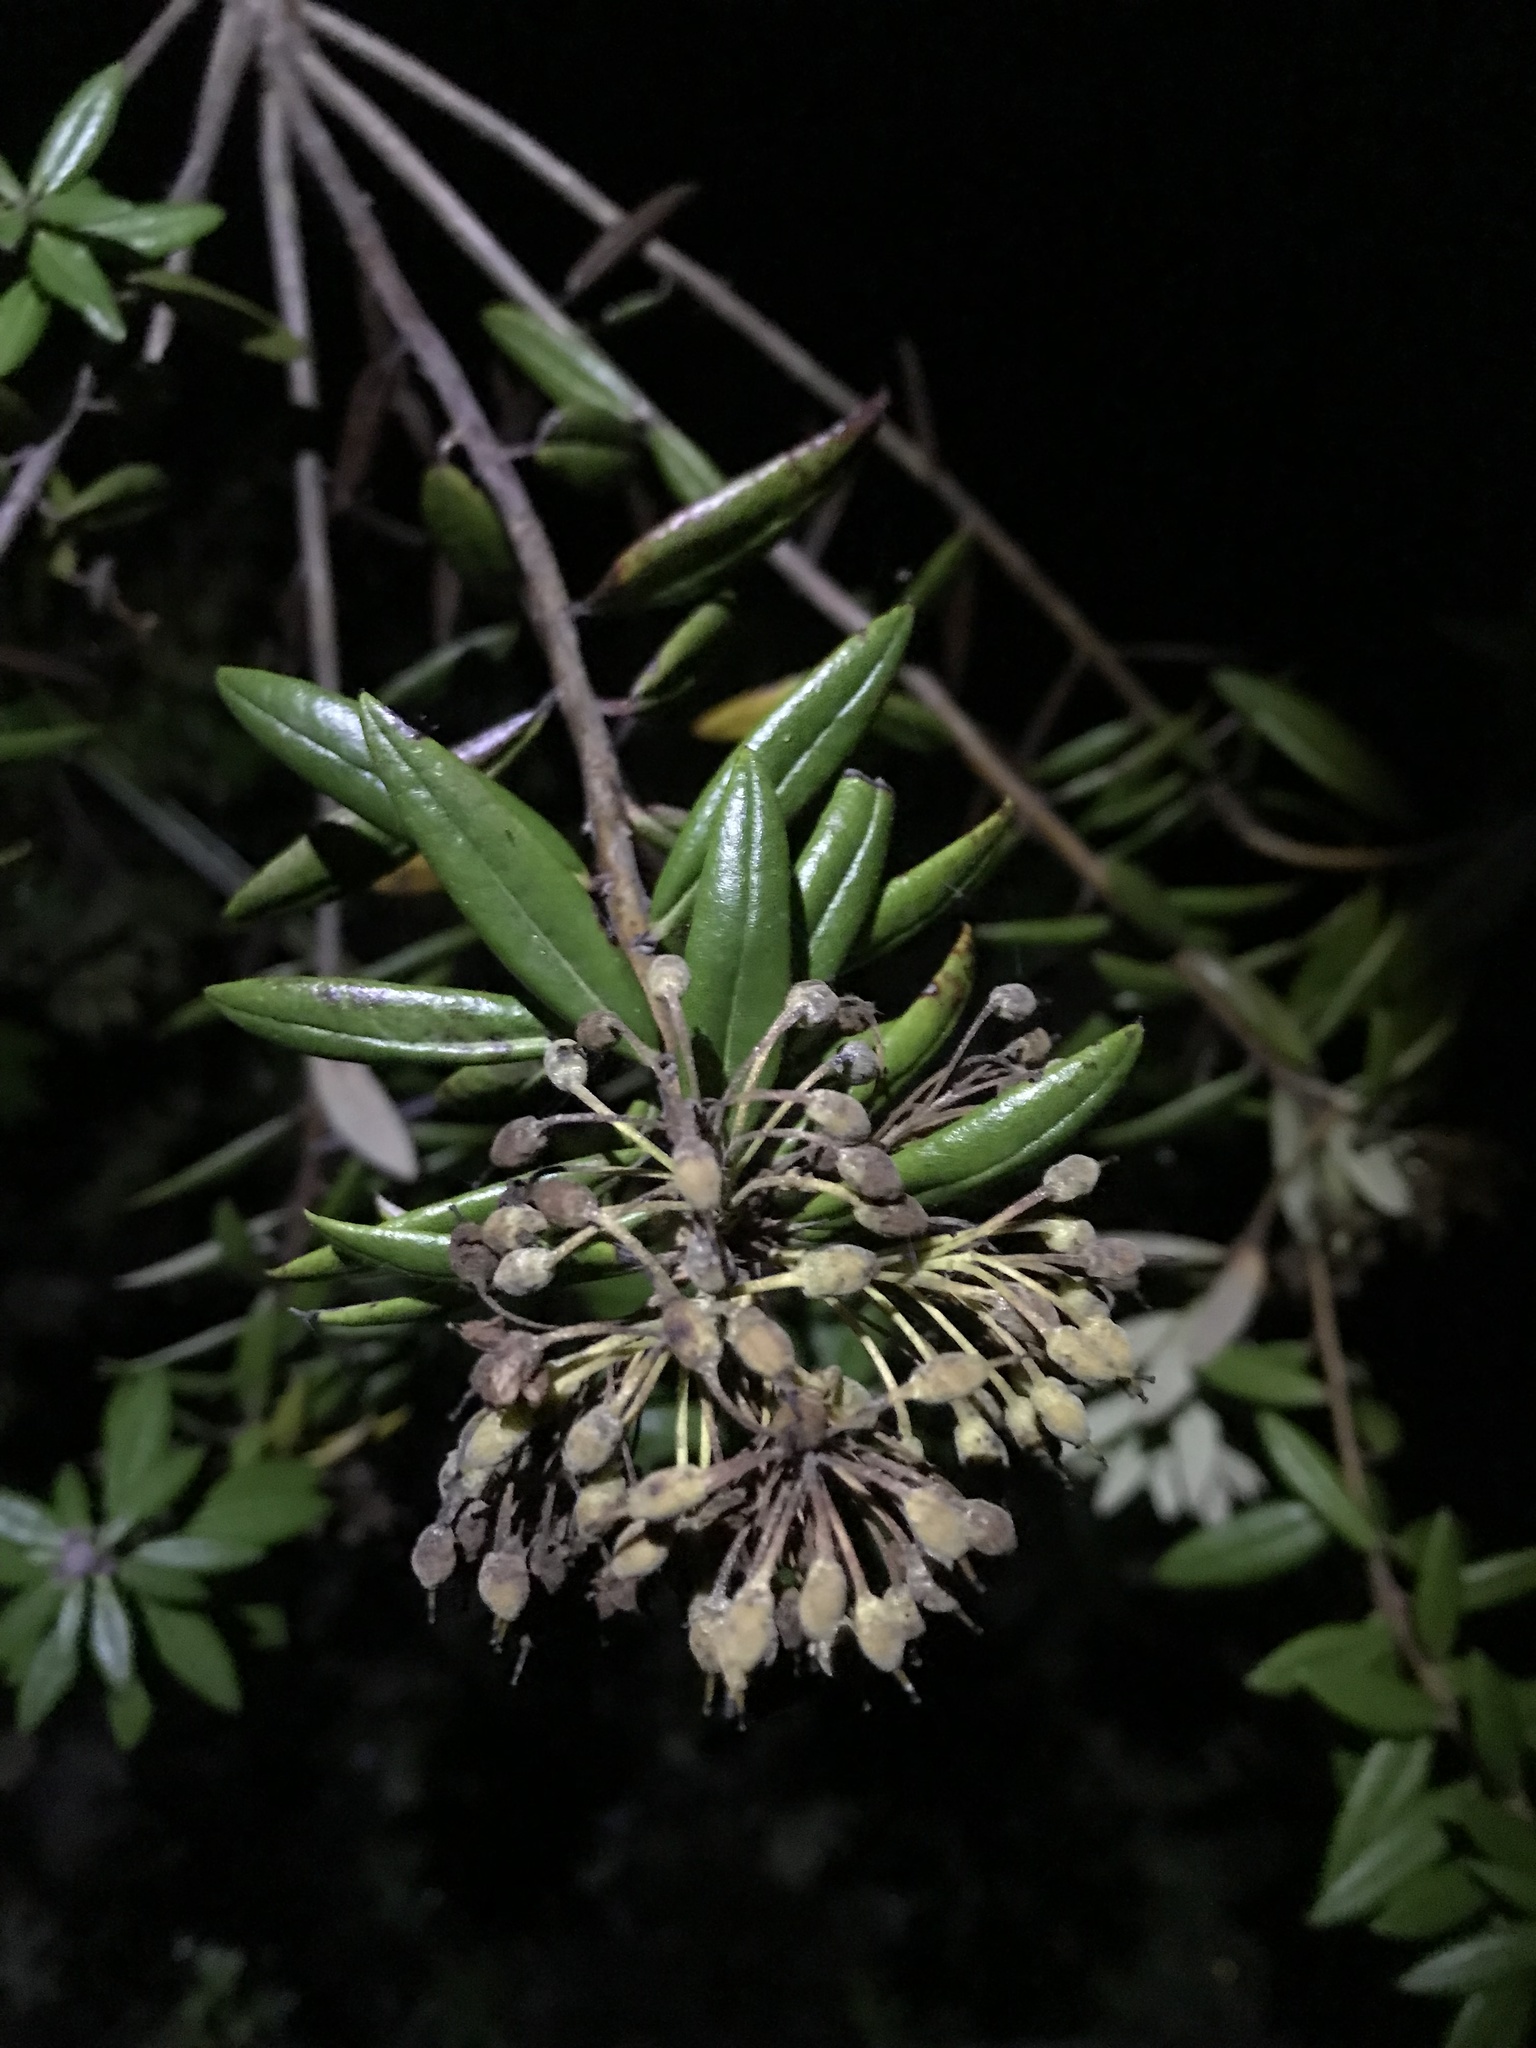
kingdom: Plantae
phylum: Tracheophyta
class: Magnoliopsida
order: Ericales
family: Ericaceae
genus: Rhododendron
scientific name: Rhododendron columbianum
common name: Western labrador tea
